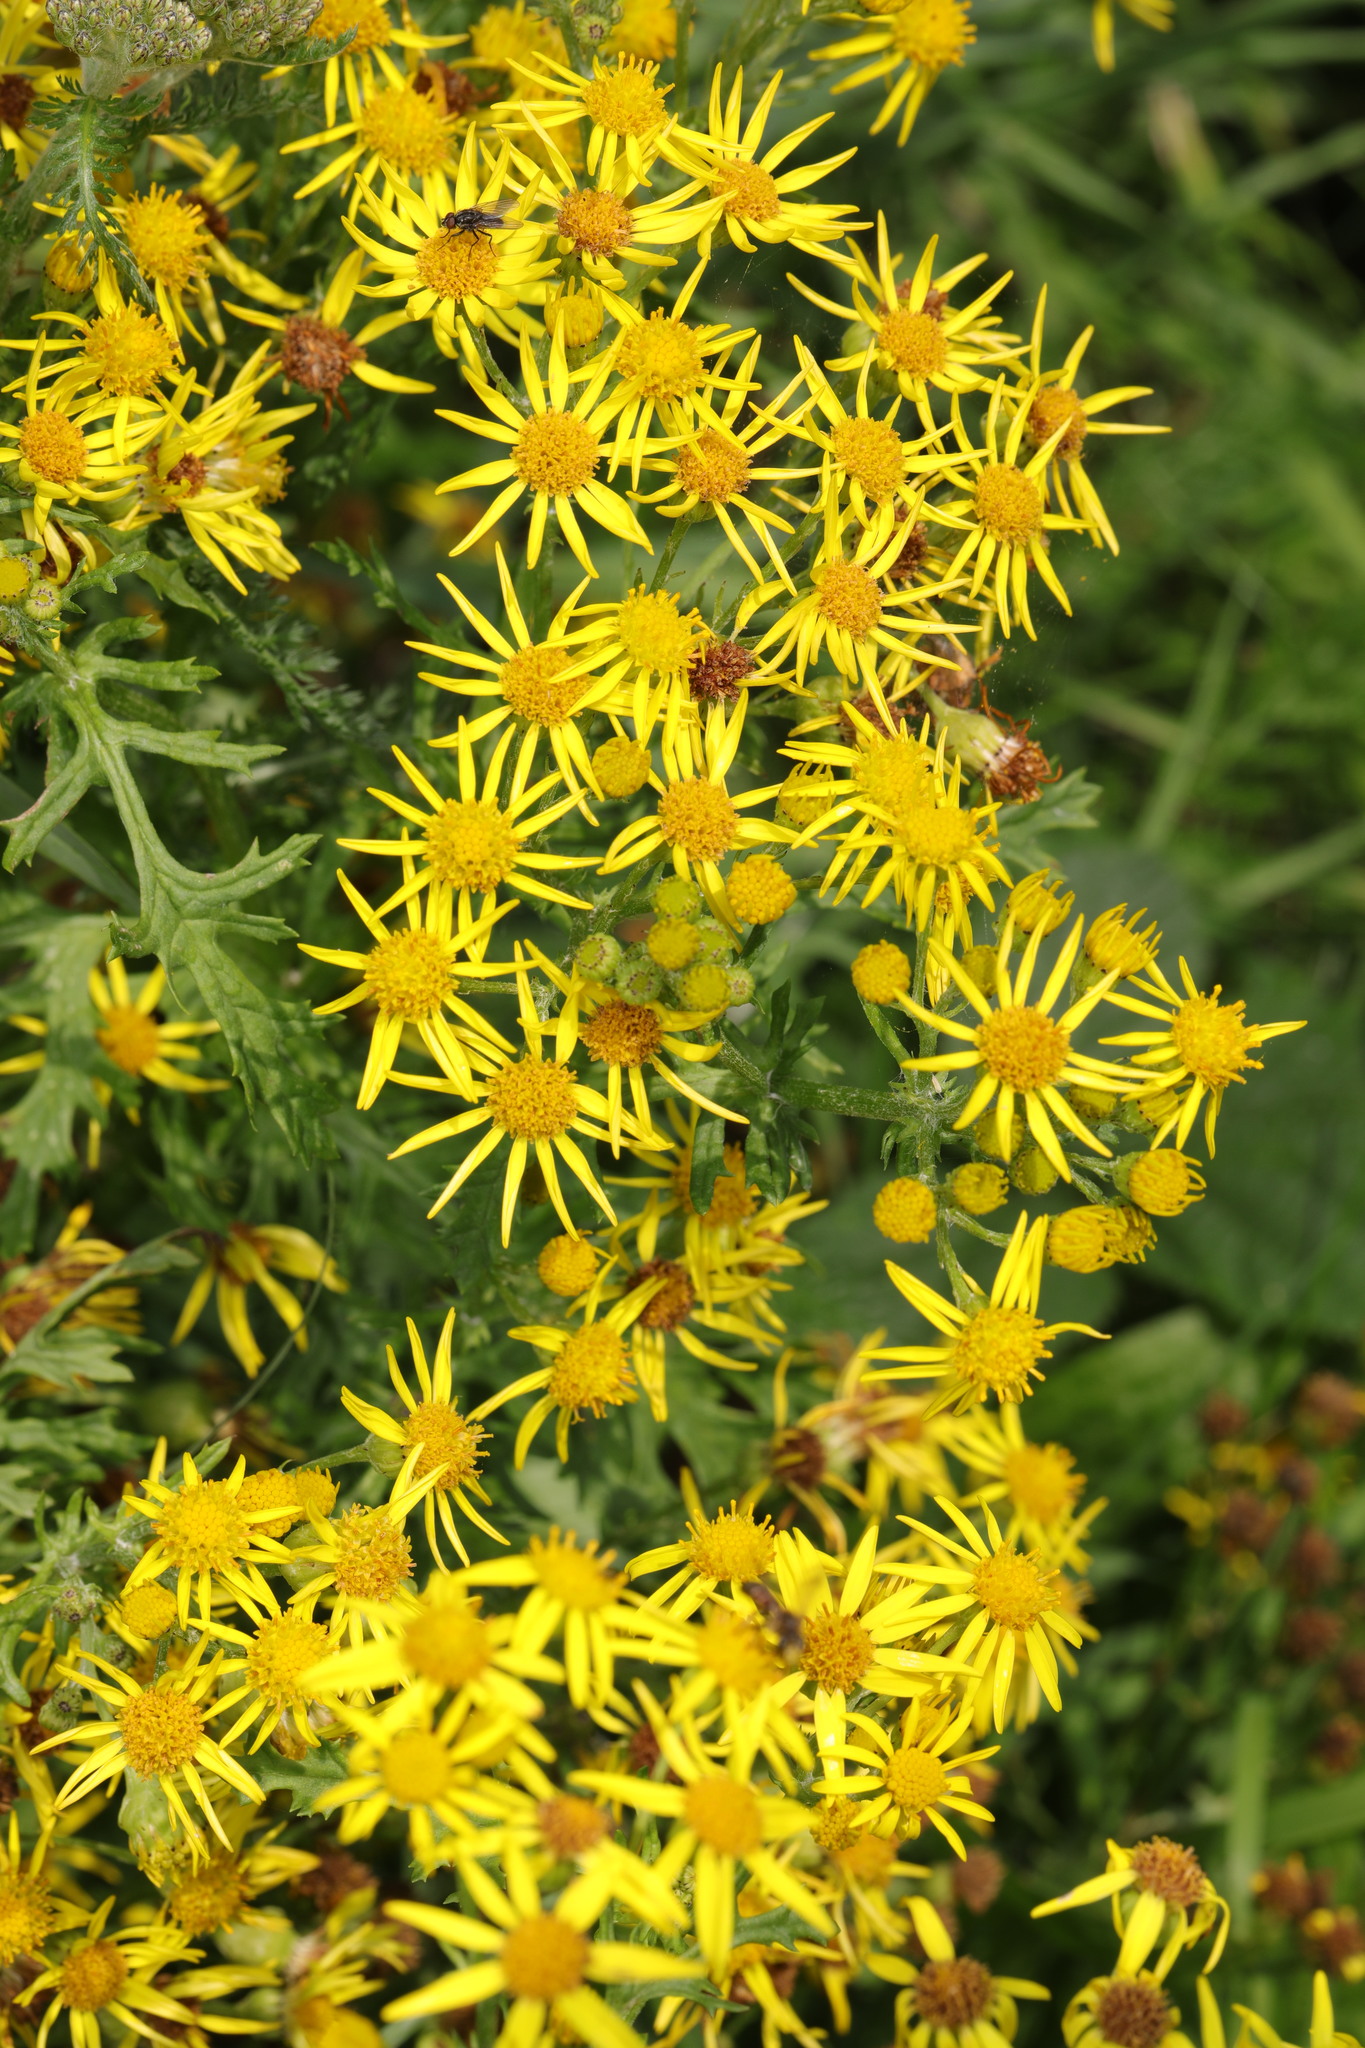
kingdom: Plantae
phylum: Tracheophyta
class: Magnoliopsida
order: Asterales
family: Asteraceae
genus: Jacobaea
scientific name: Jacobaea vulgaris
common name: Stinking willie
